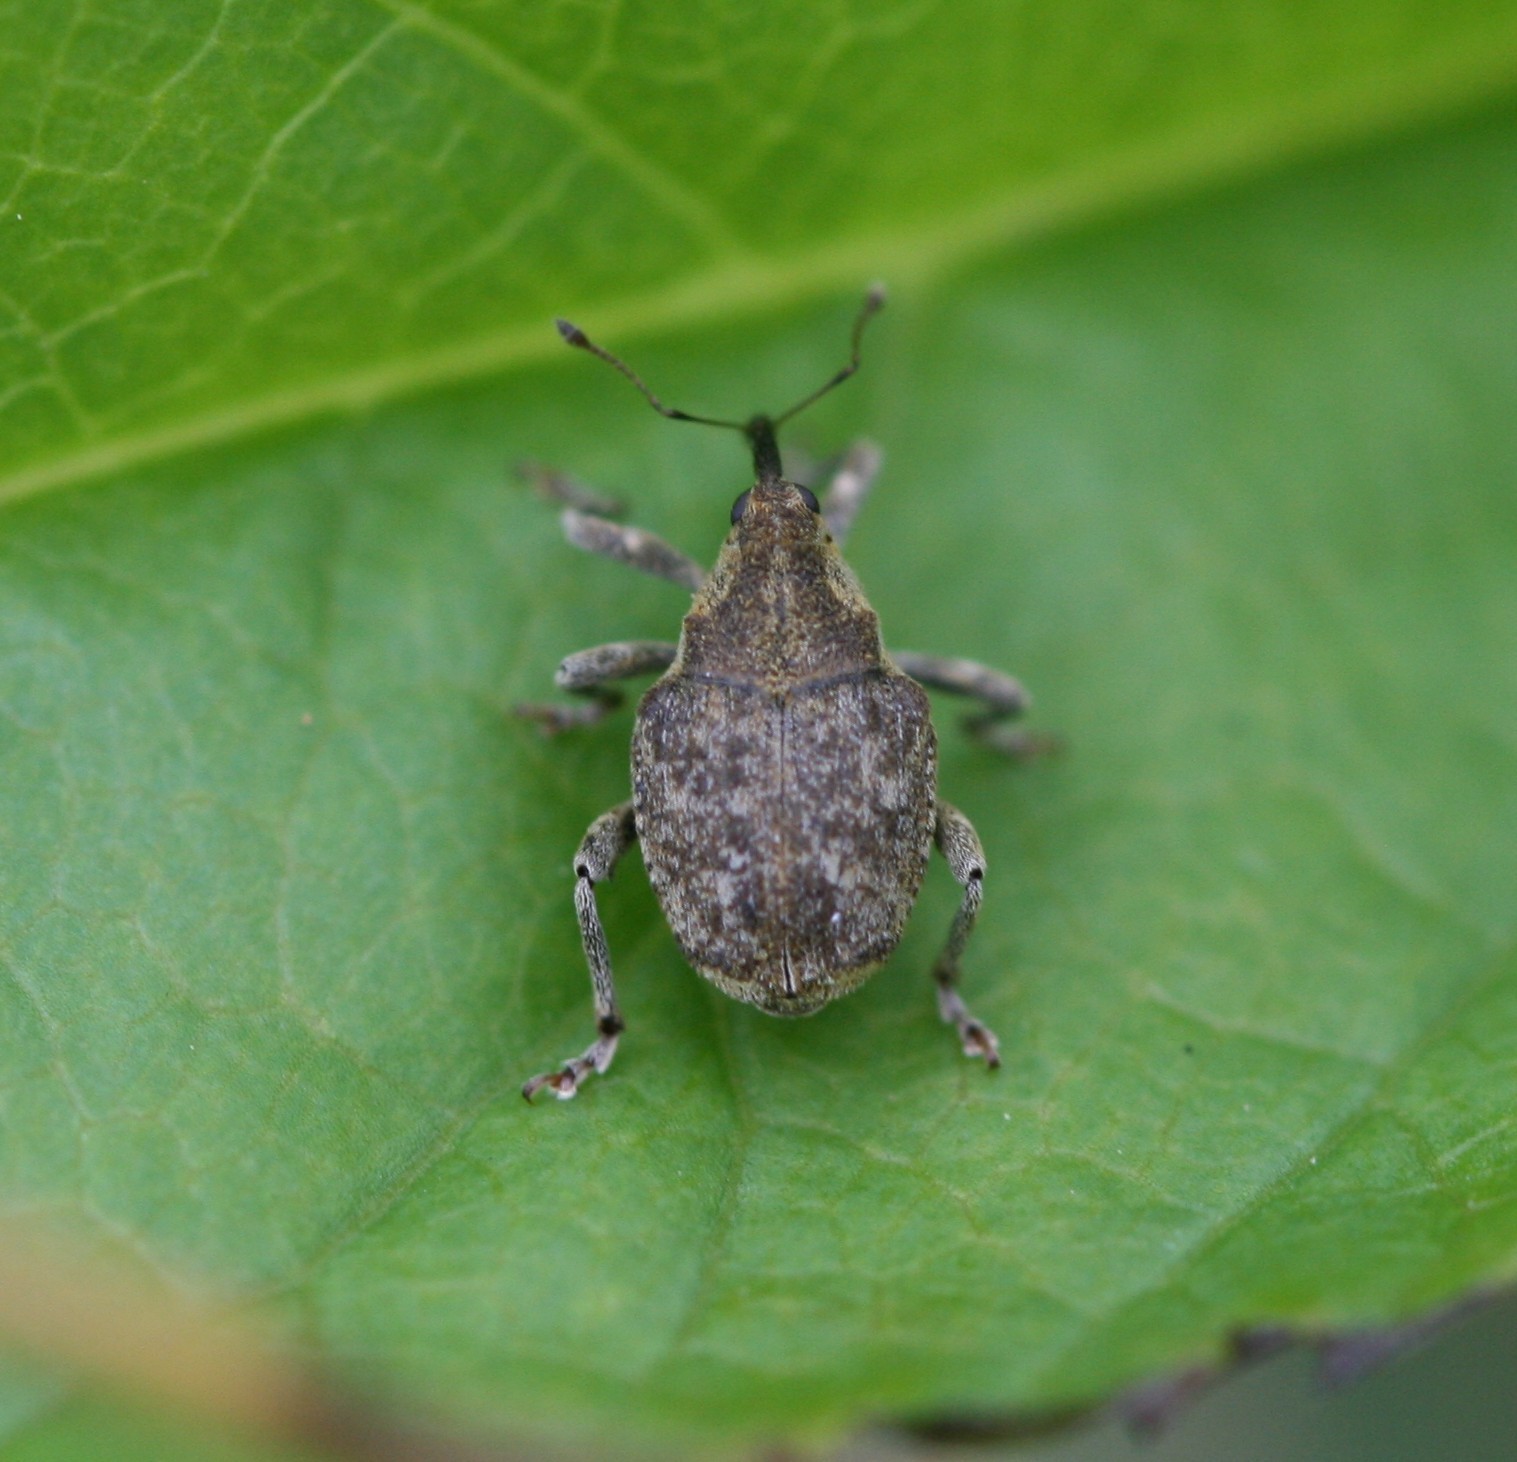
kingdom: Animalia
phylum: Arthropoda
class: Insecta
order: Coleoptera
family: Curculionidae
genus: Parethelcus
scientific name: Parethelcus pollinarius
